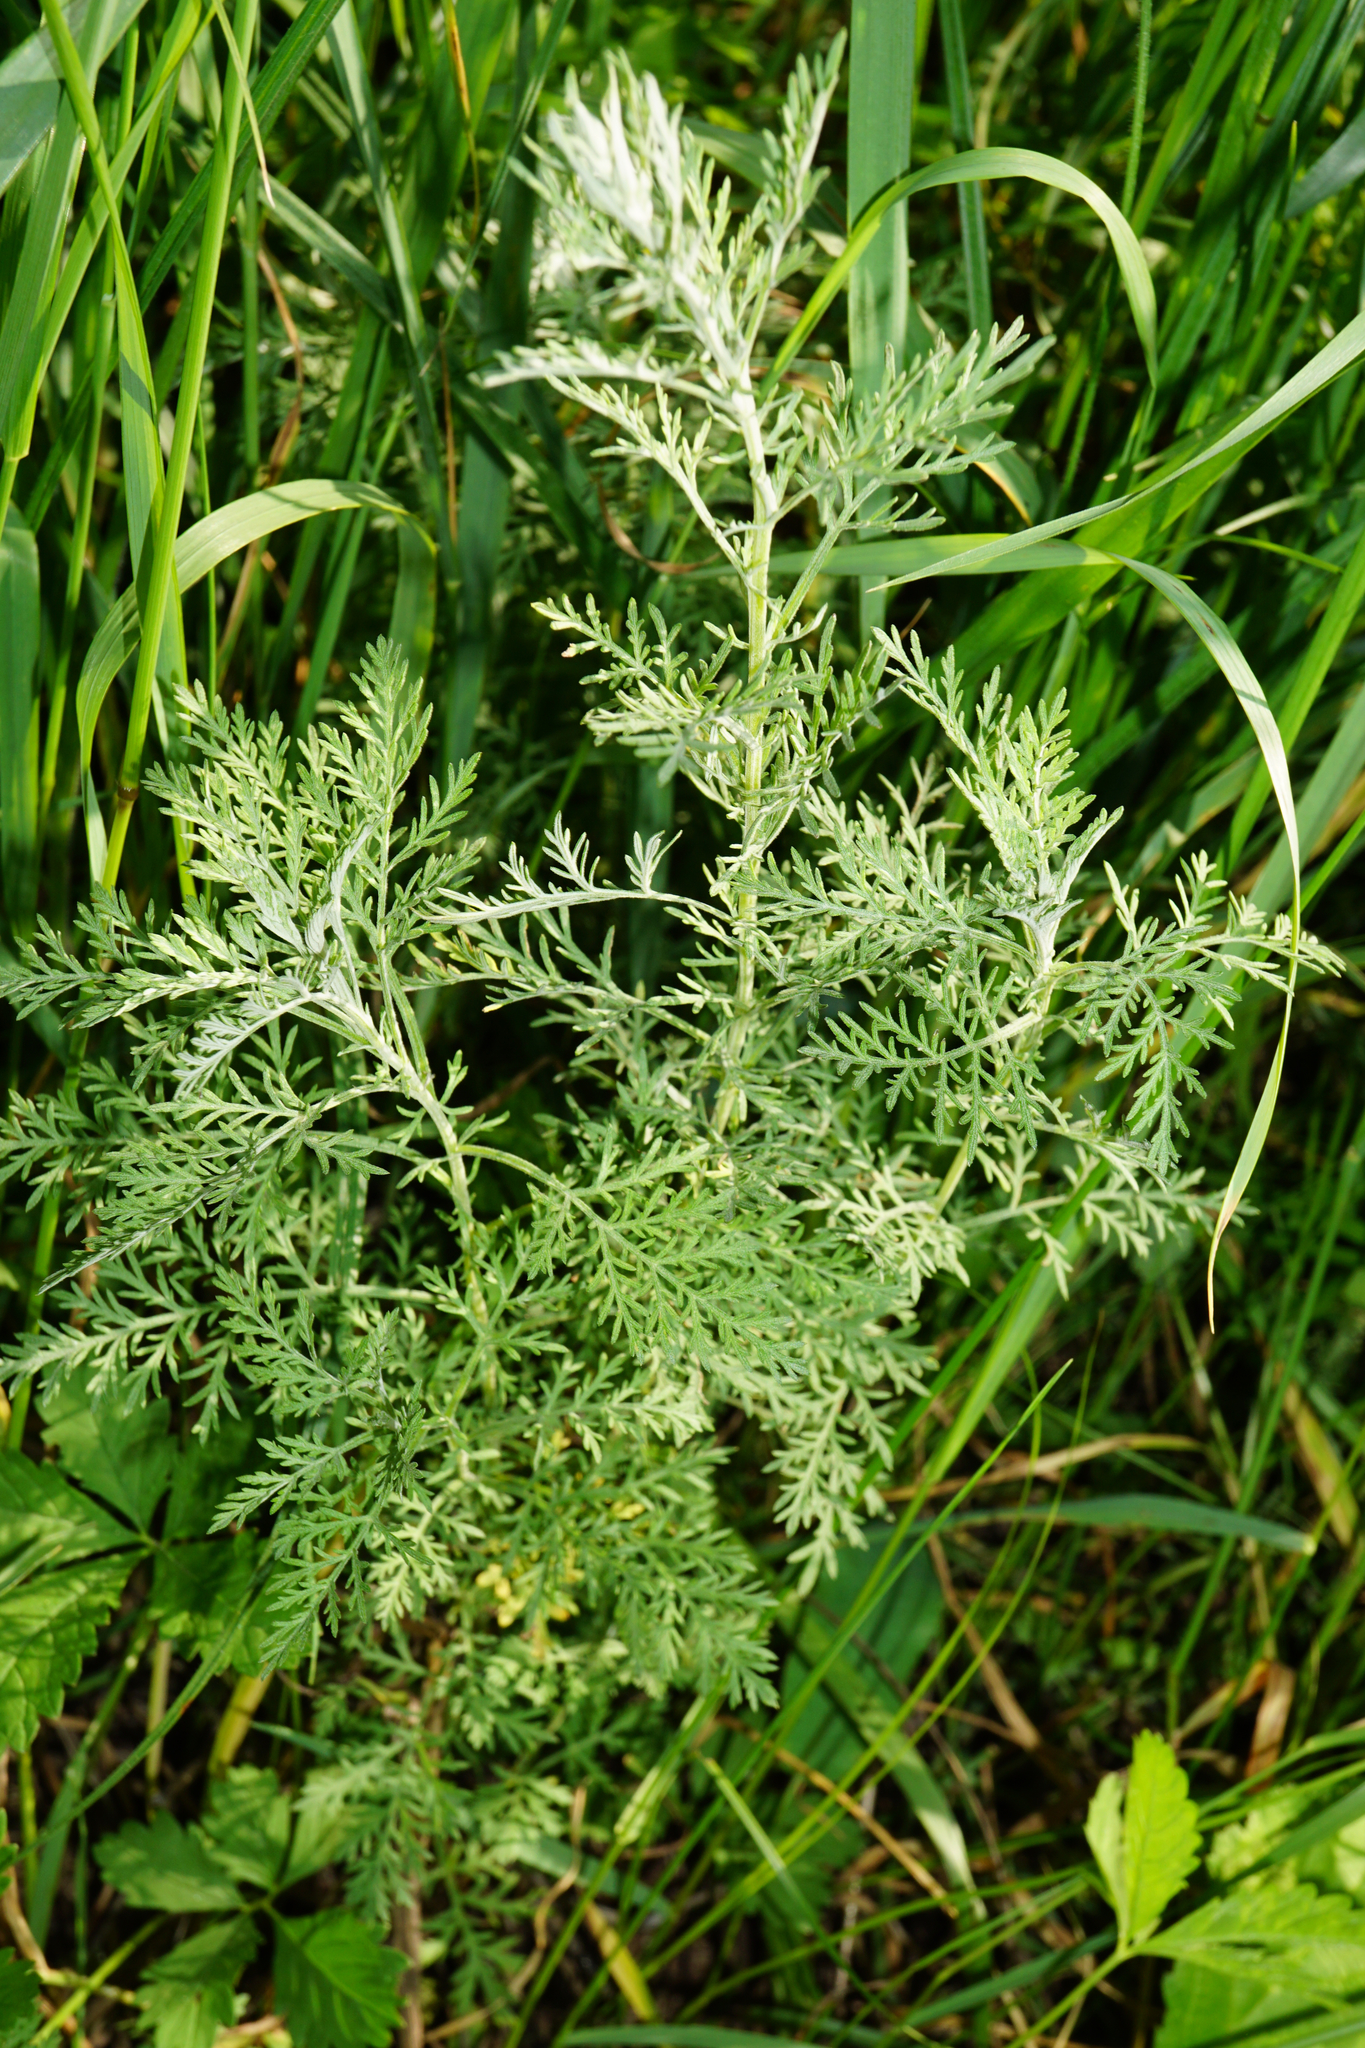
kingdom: Plantae
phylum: Tracheophyta
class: Magnoliopsida
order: Asterales
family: Asteraceae
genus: Artemisia
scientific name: Artemisia pontica
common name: Roman wormwood
